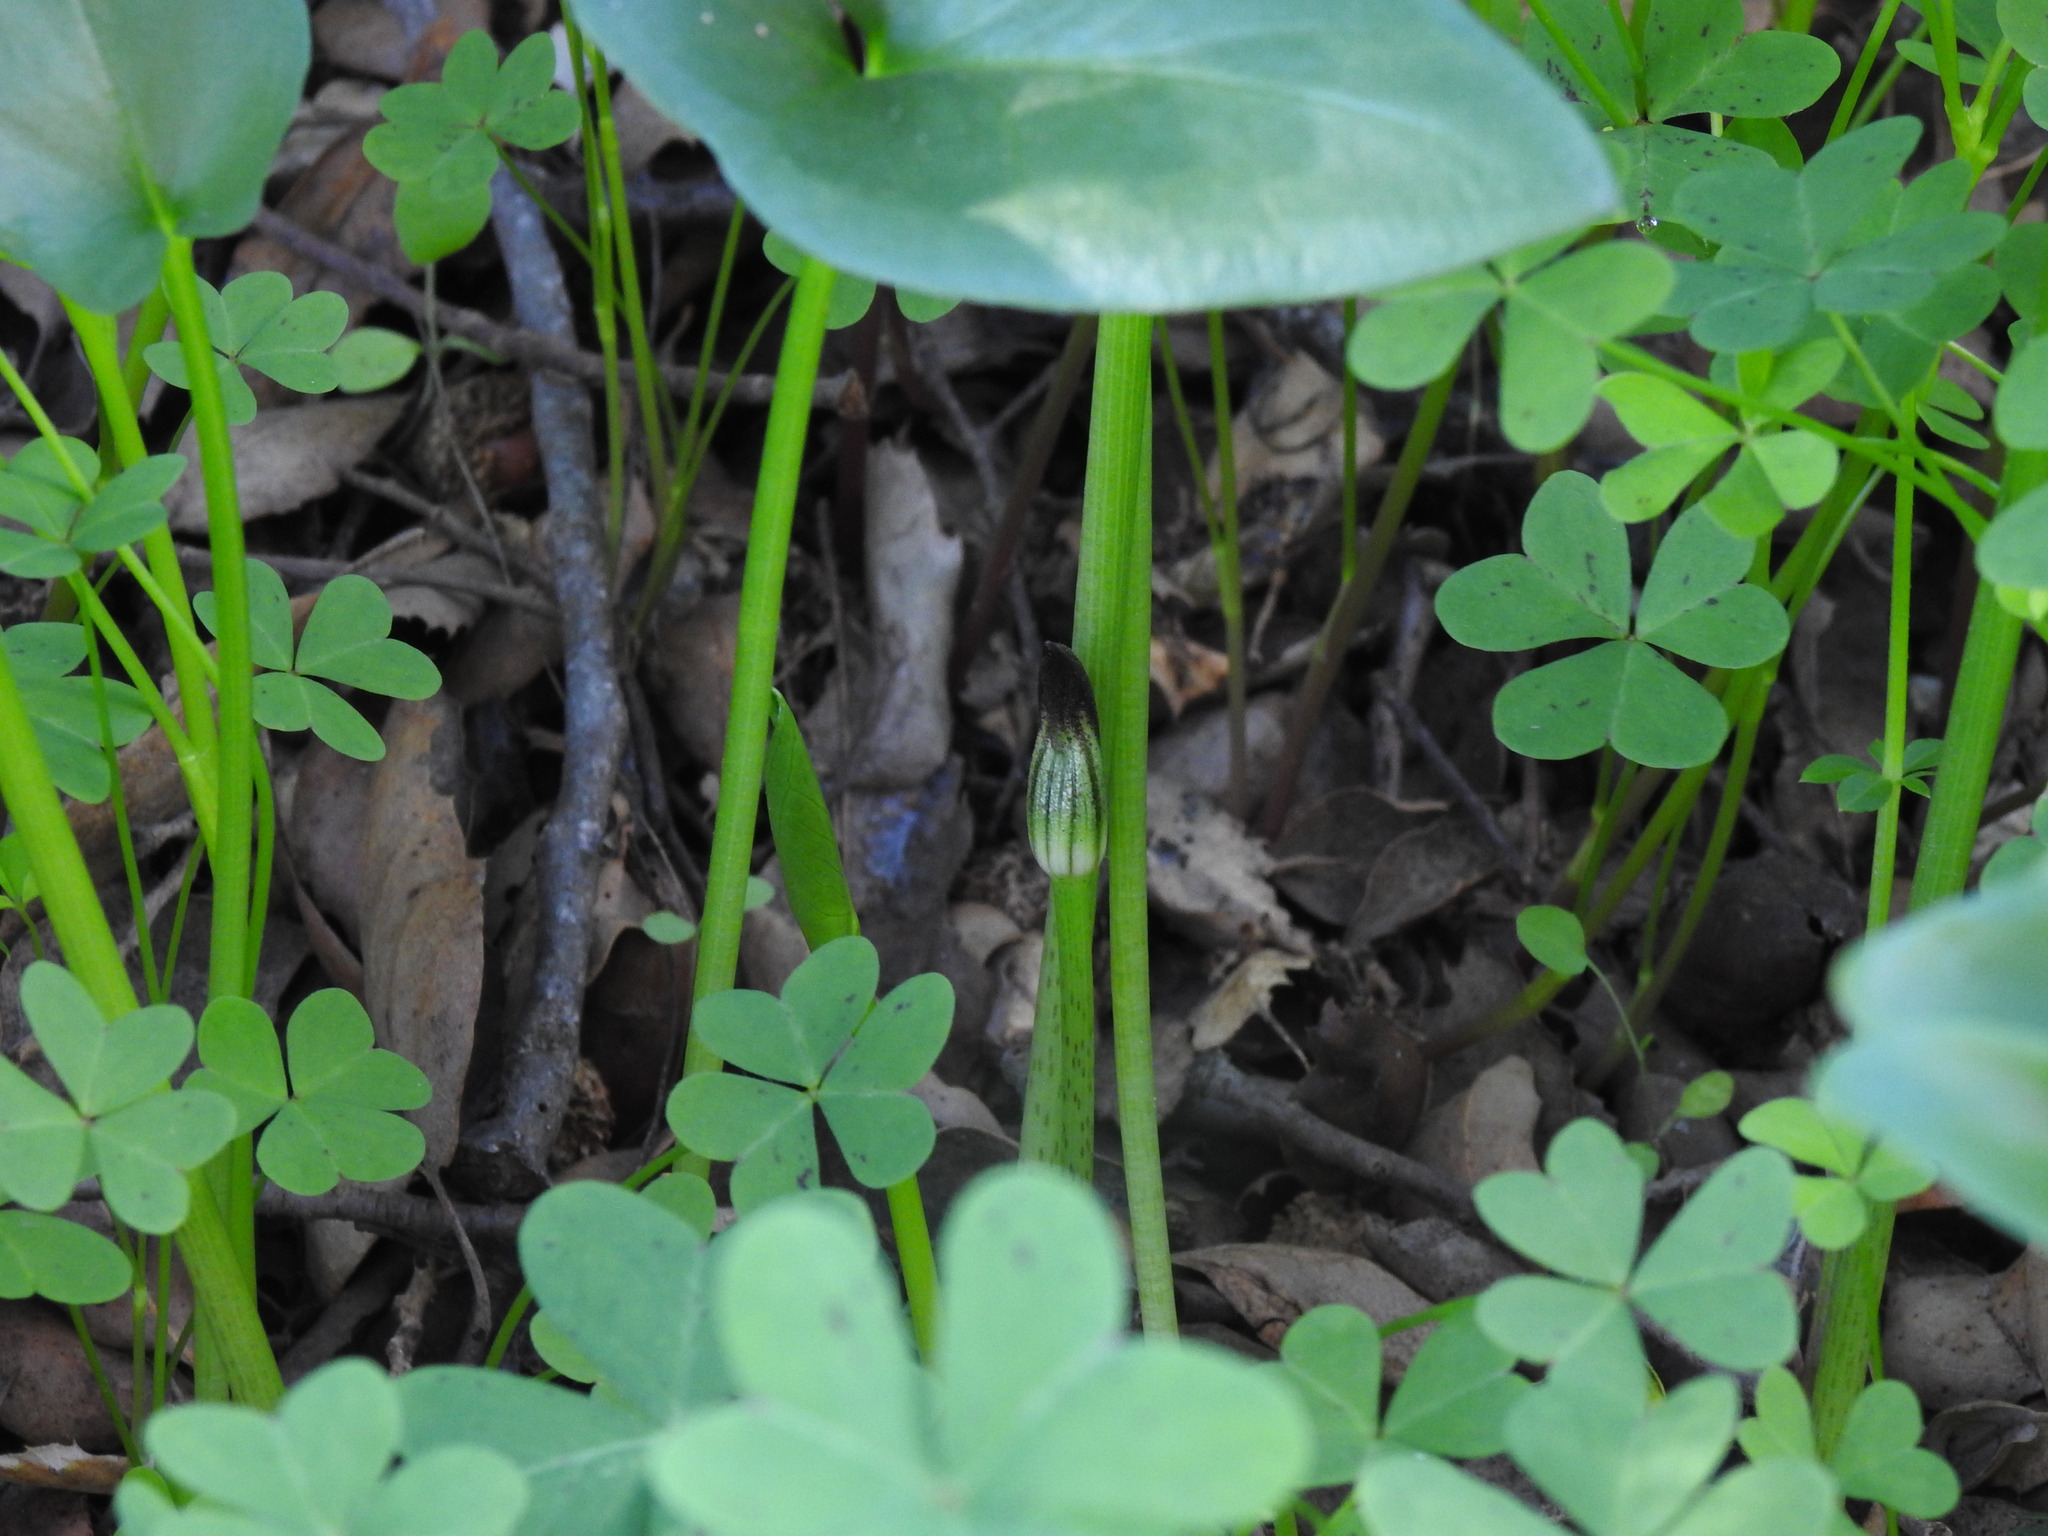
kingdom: Plantae
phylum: Tracheophyta
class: Liliopsida
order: Alismatales
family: Araceae
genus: Arisarum
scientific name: Arisarum simorrhinum
